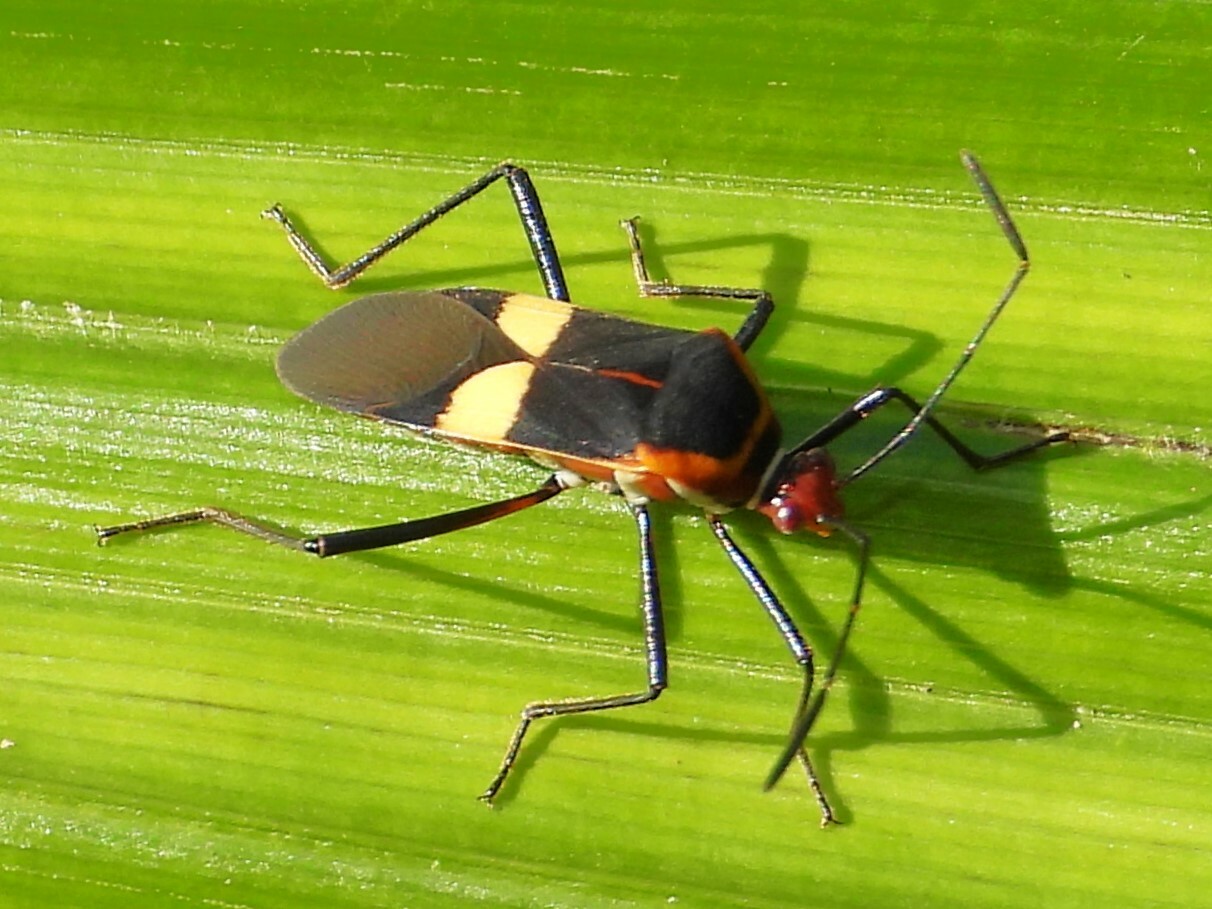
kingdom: Animalia
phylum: Arthropoda
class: Insecta
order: Hemiptera
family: Coreidae
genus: Hypselonotus
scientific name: Hypselonotus interruptus
